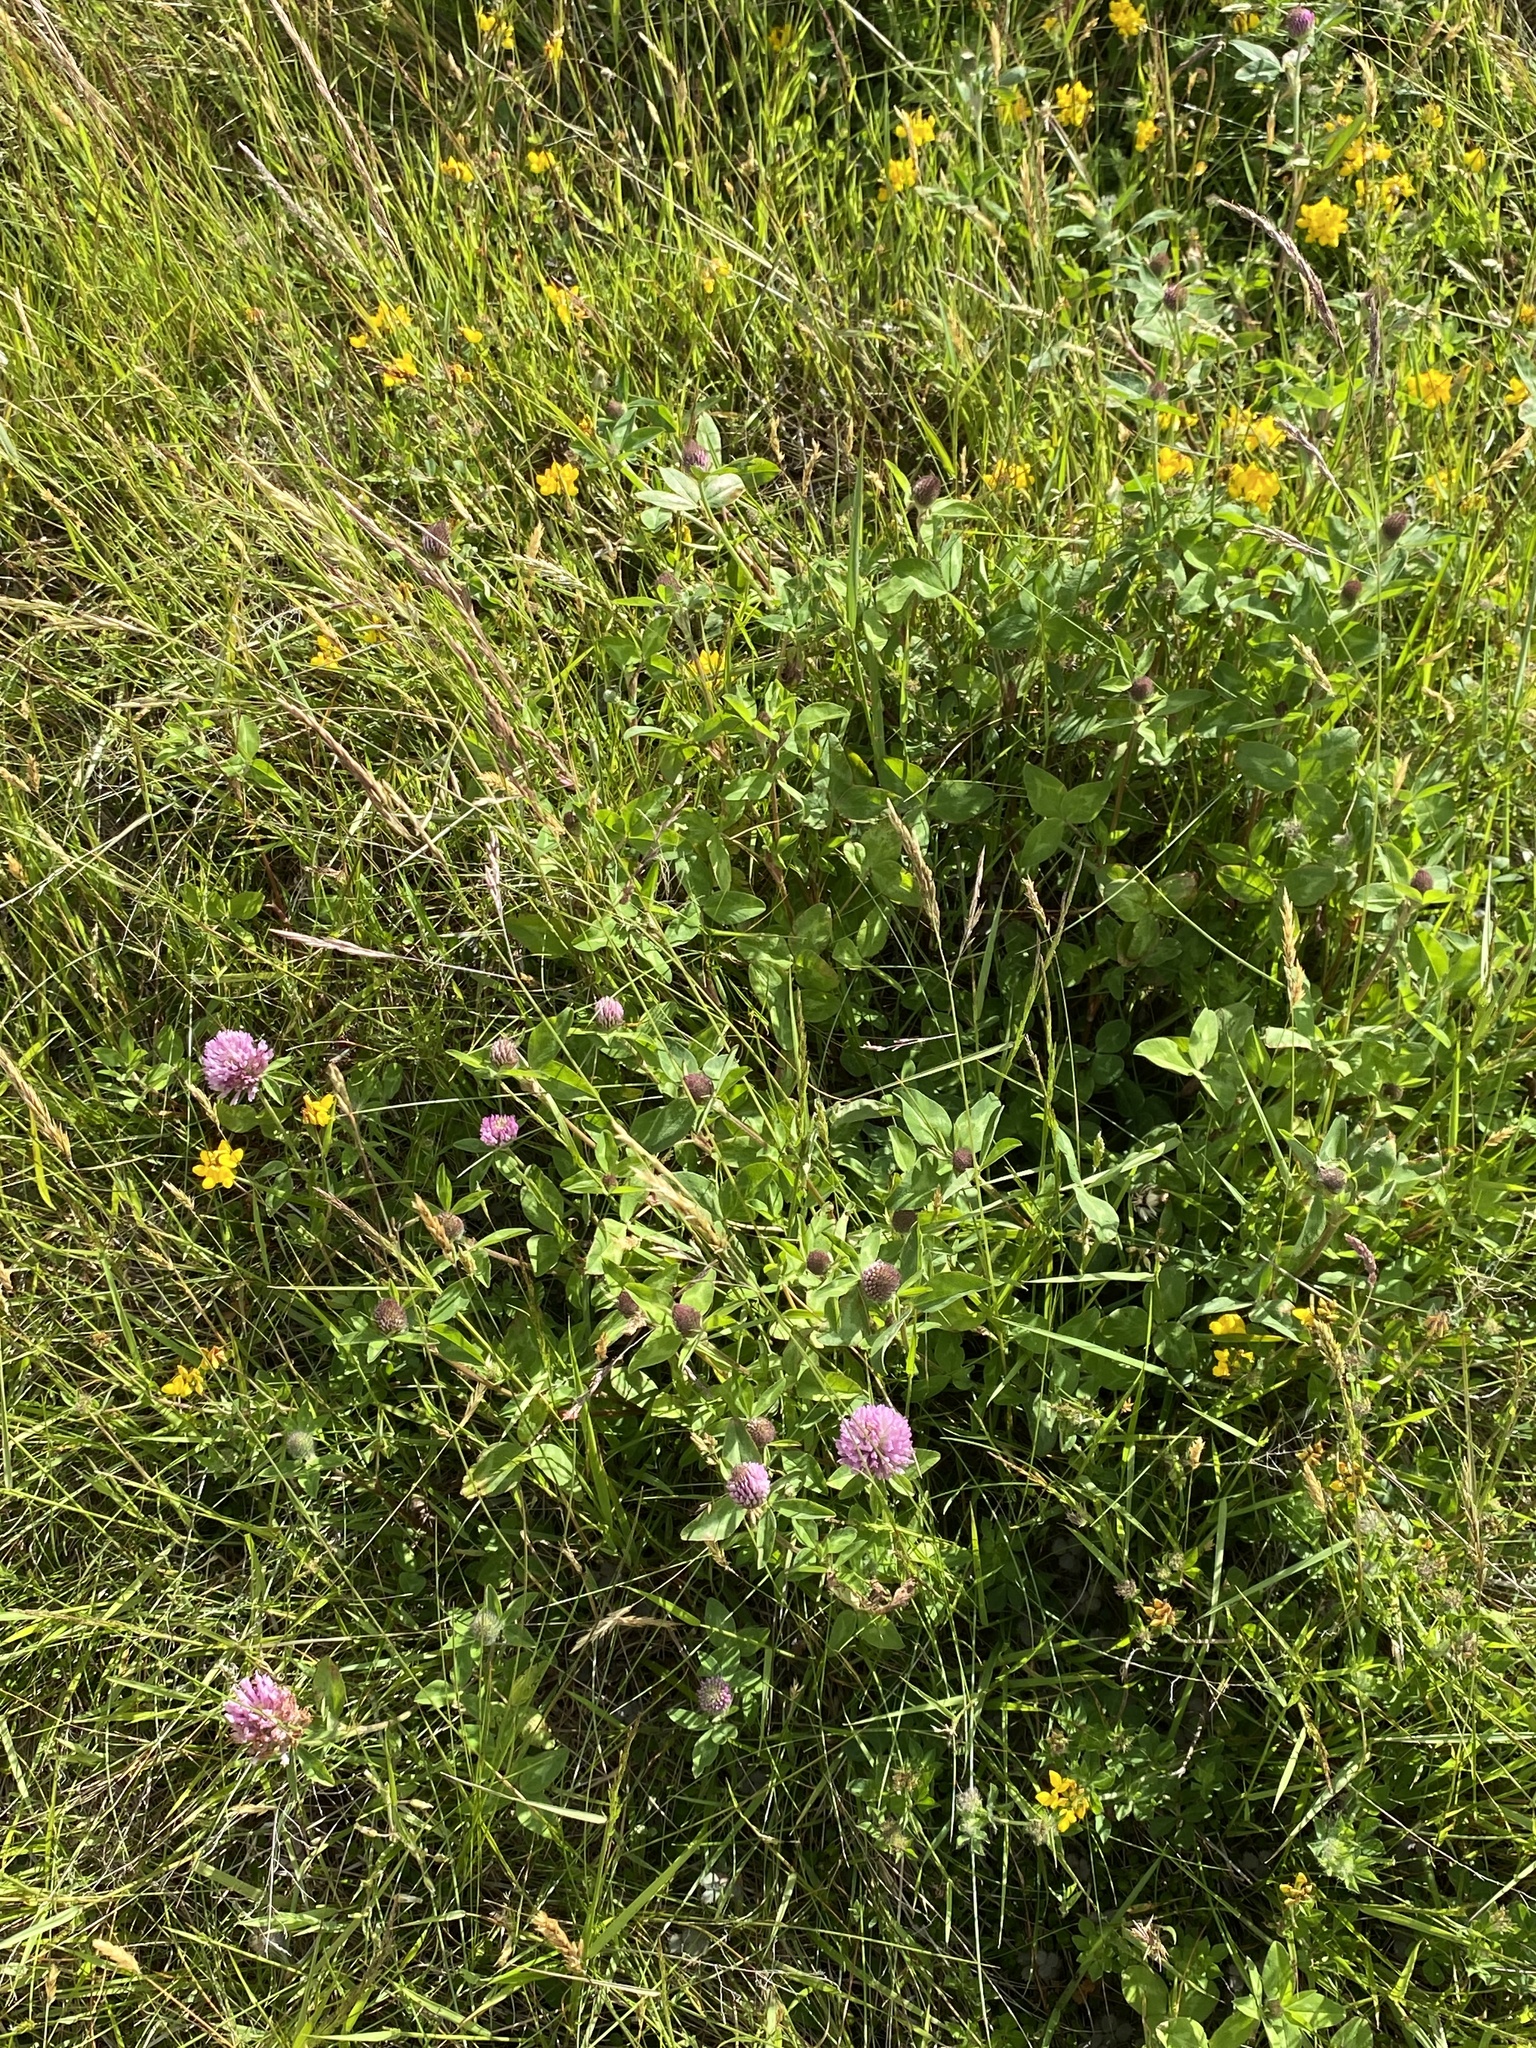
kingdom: Plantae
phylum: Tracheophyta
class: Magnoliopsida
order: Fabales
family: Fabaceae
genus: Trifolium
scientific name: Trifolium pratense
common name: Red clover
